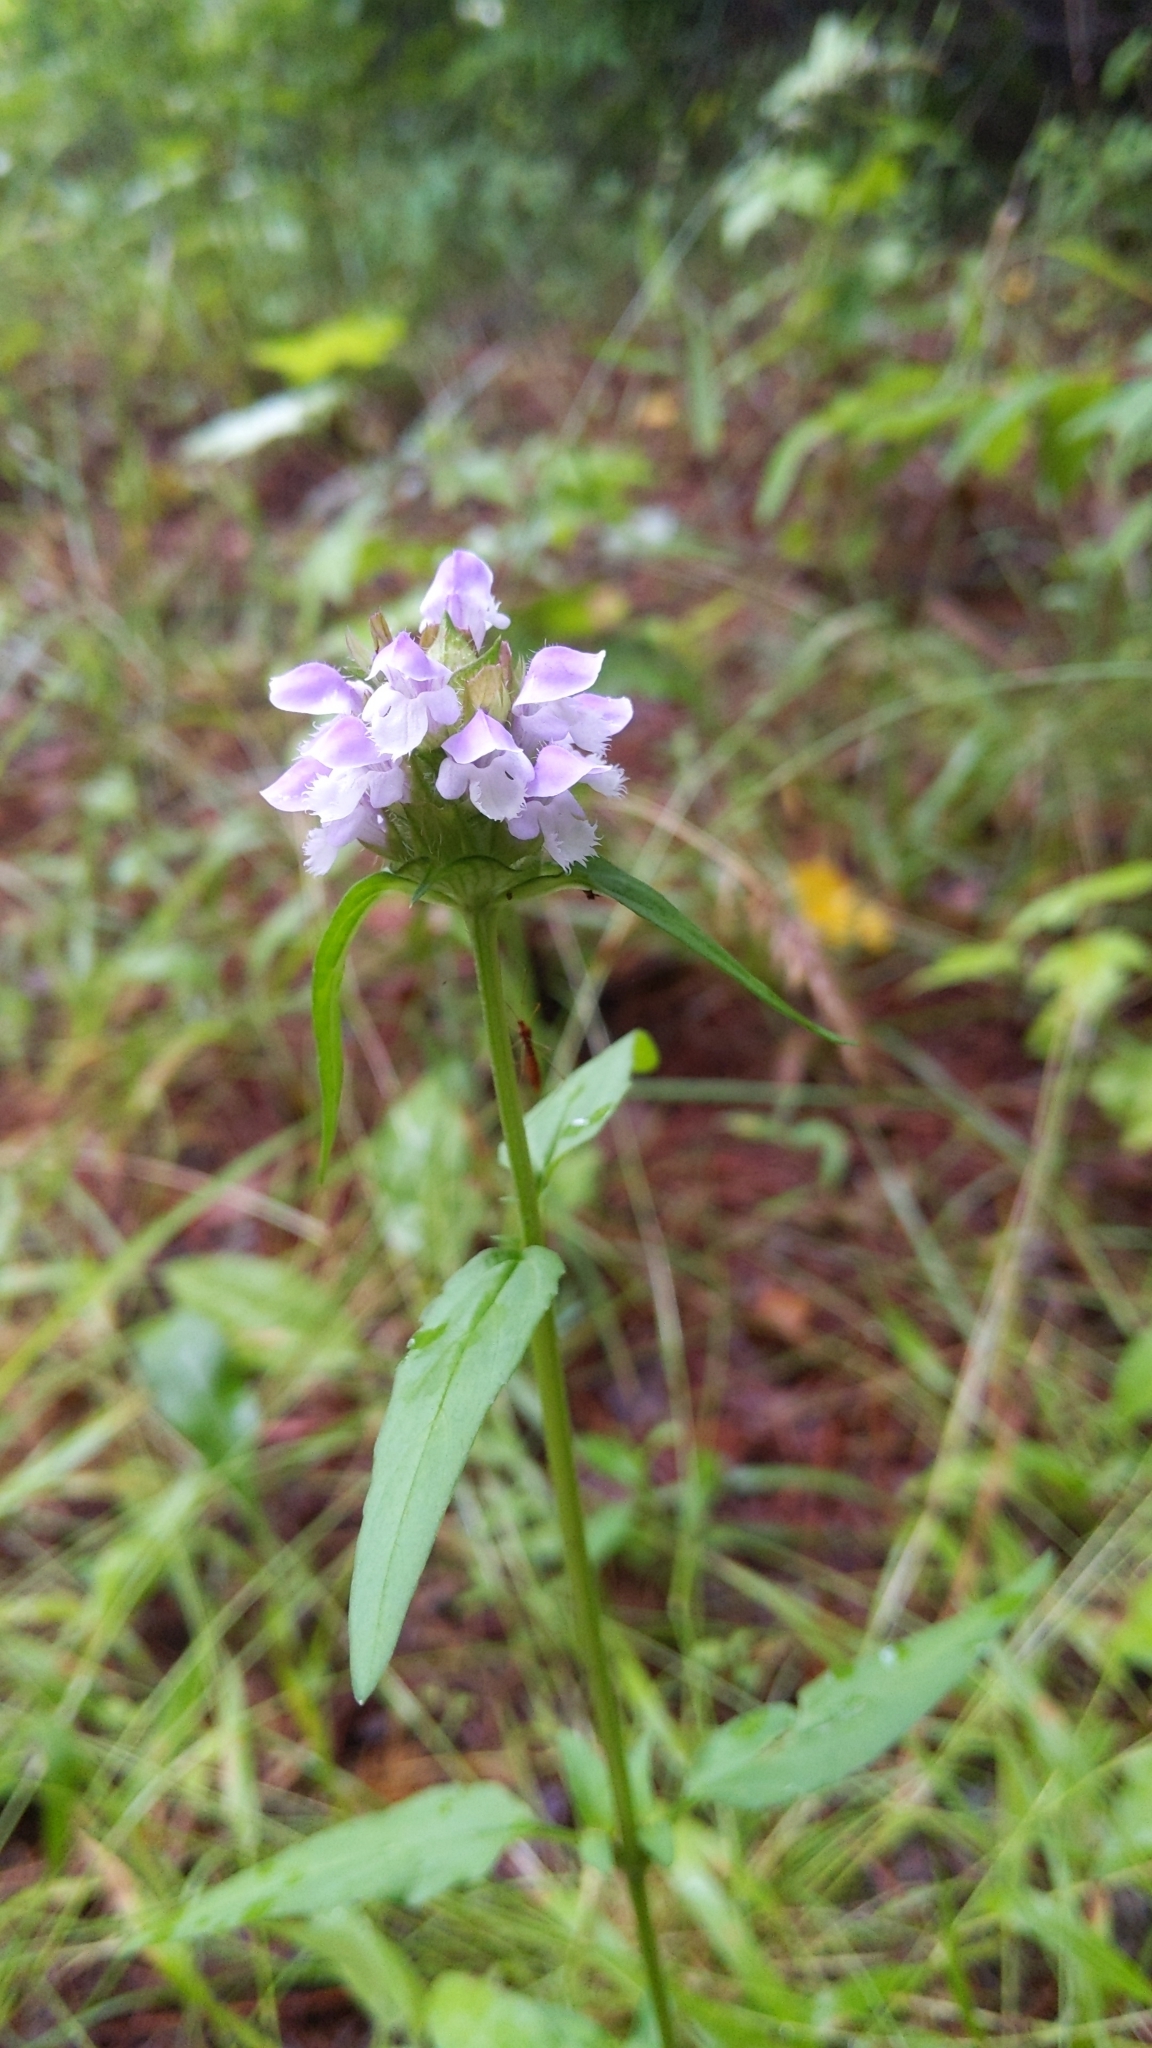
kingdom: Plantae
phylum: Tracheophyta
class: Magnoliopsida
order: Lamiales
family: Lamiaceae
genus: Prunella
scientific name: Prunella vulgaris
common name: Heal-all
